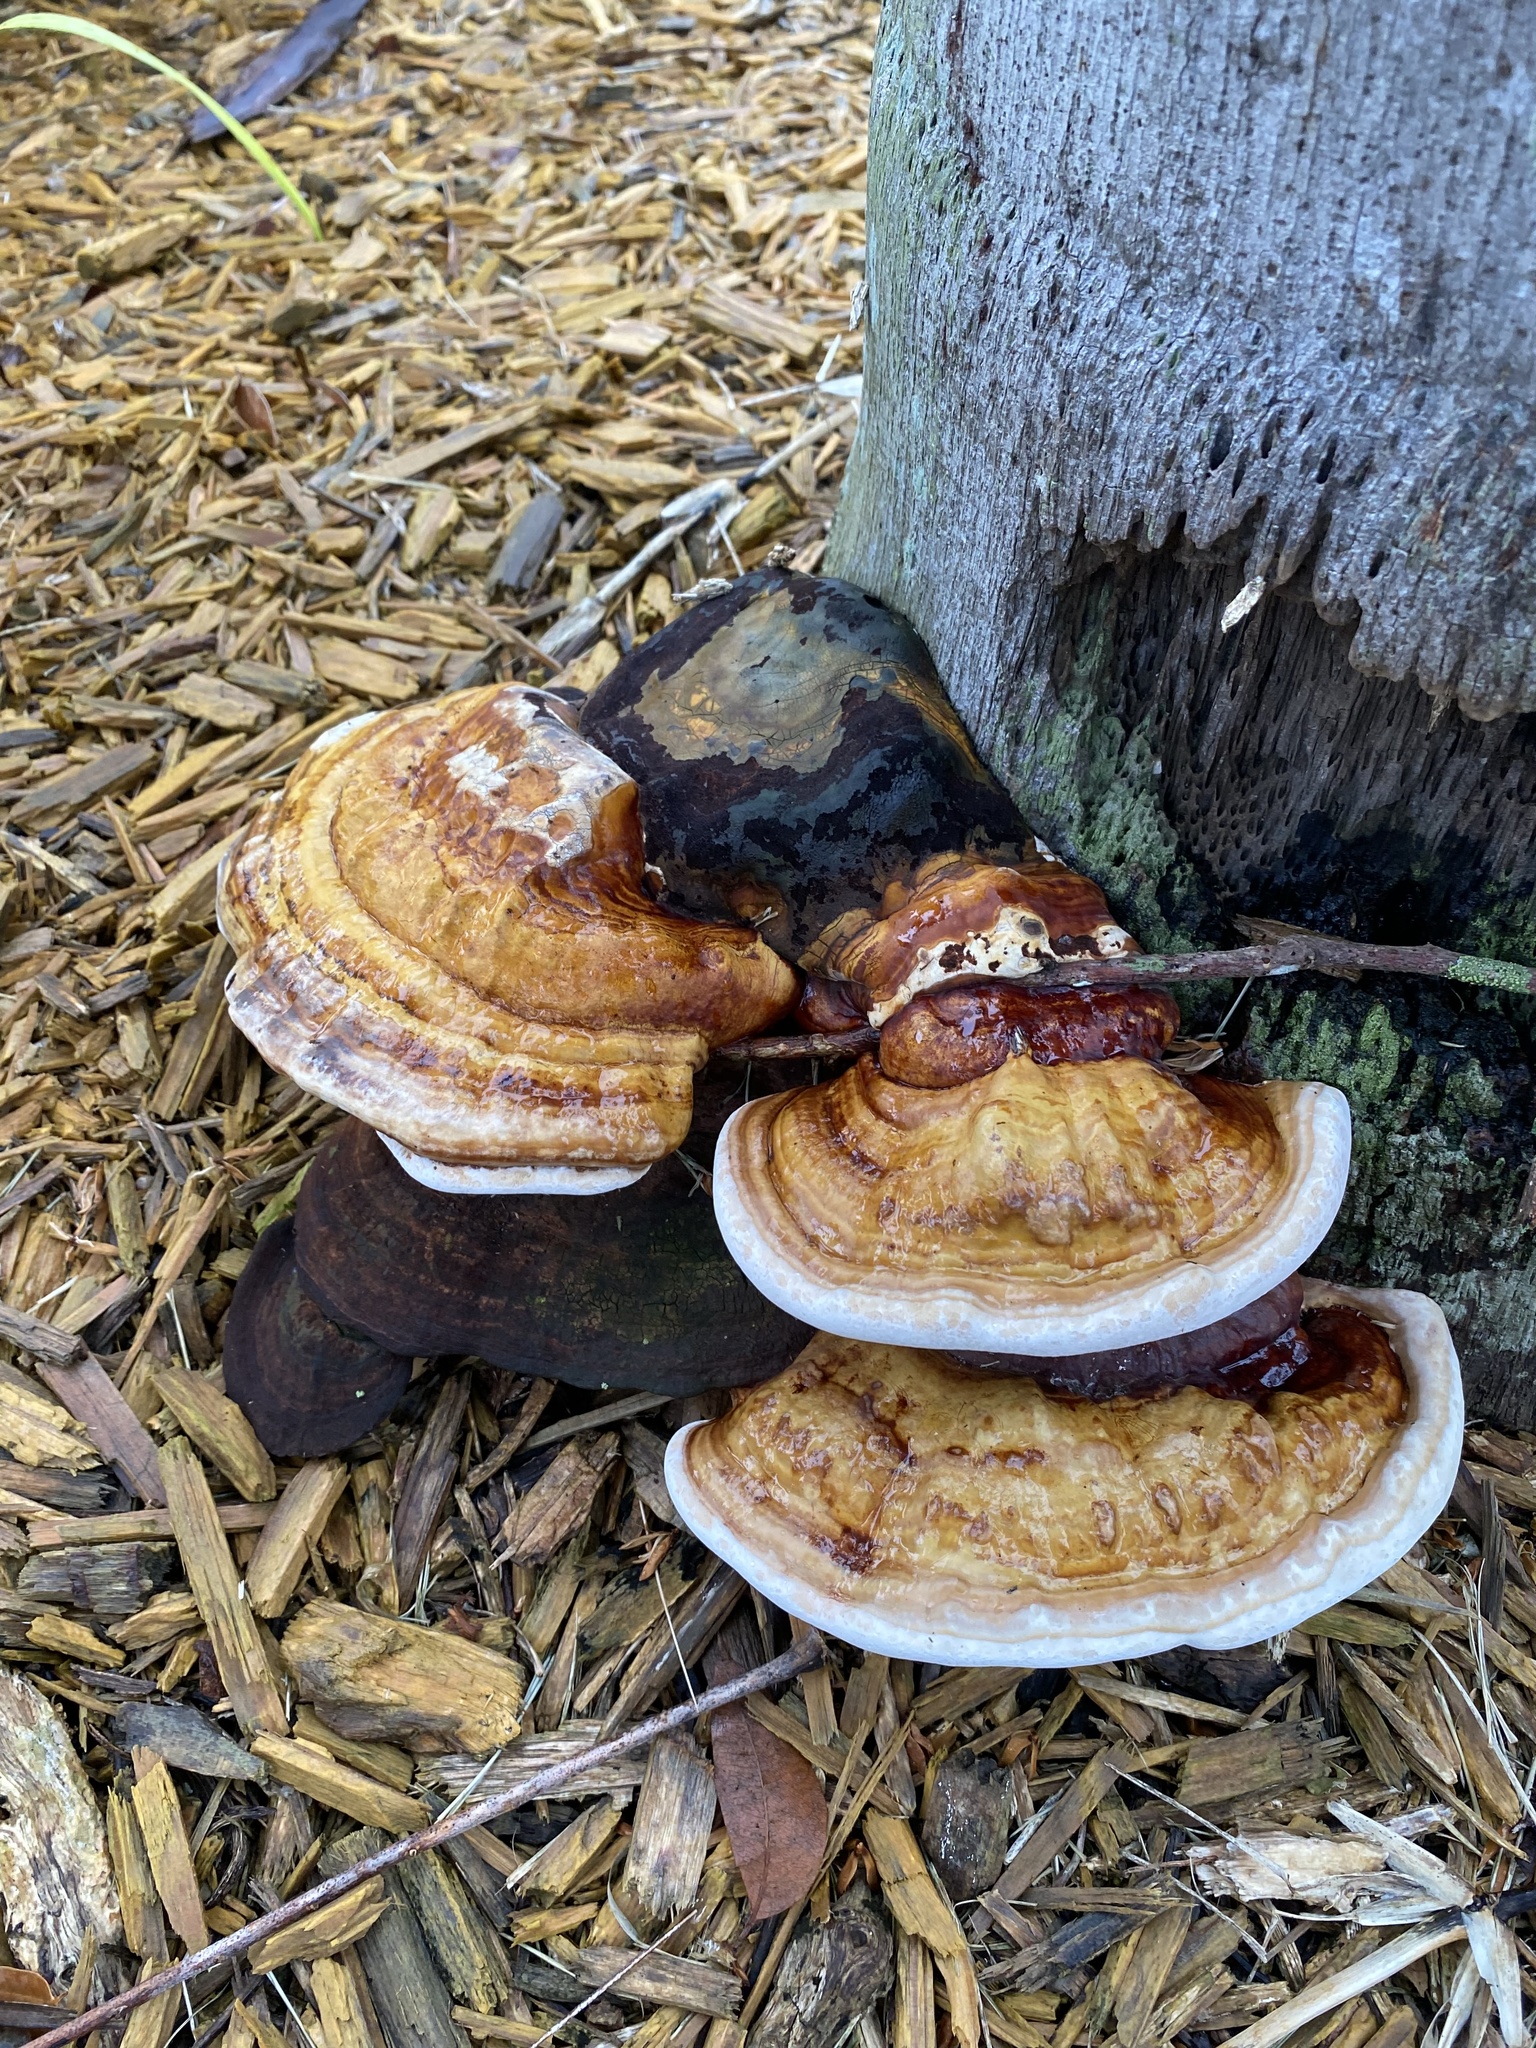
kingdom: Fungi
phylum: Basidiomycota
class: Agaricomycetes
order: Polyporales
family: Polyporaceae
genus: Ganoderma
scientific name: Ganoderma zonatum
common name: Ganoderma butt rot
